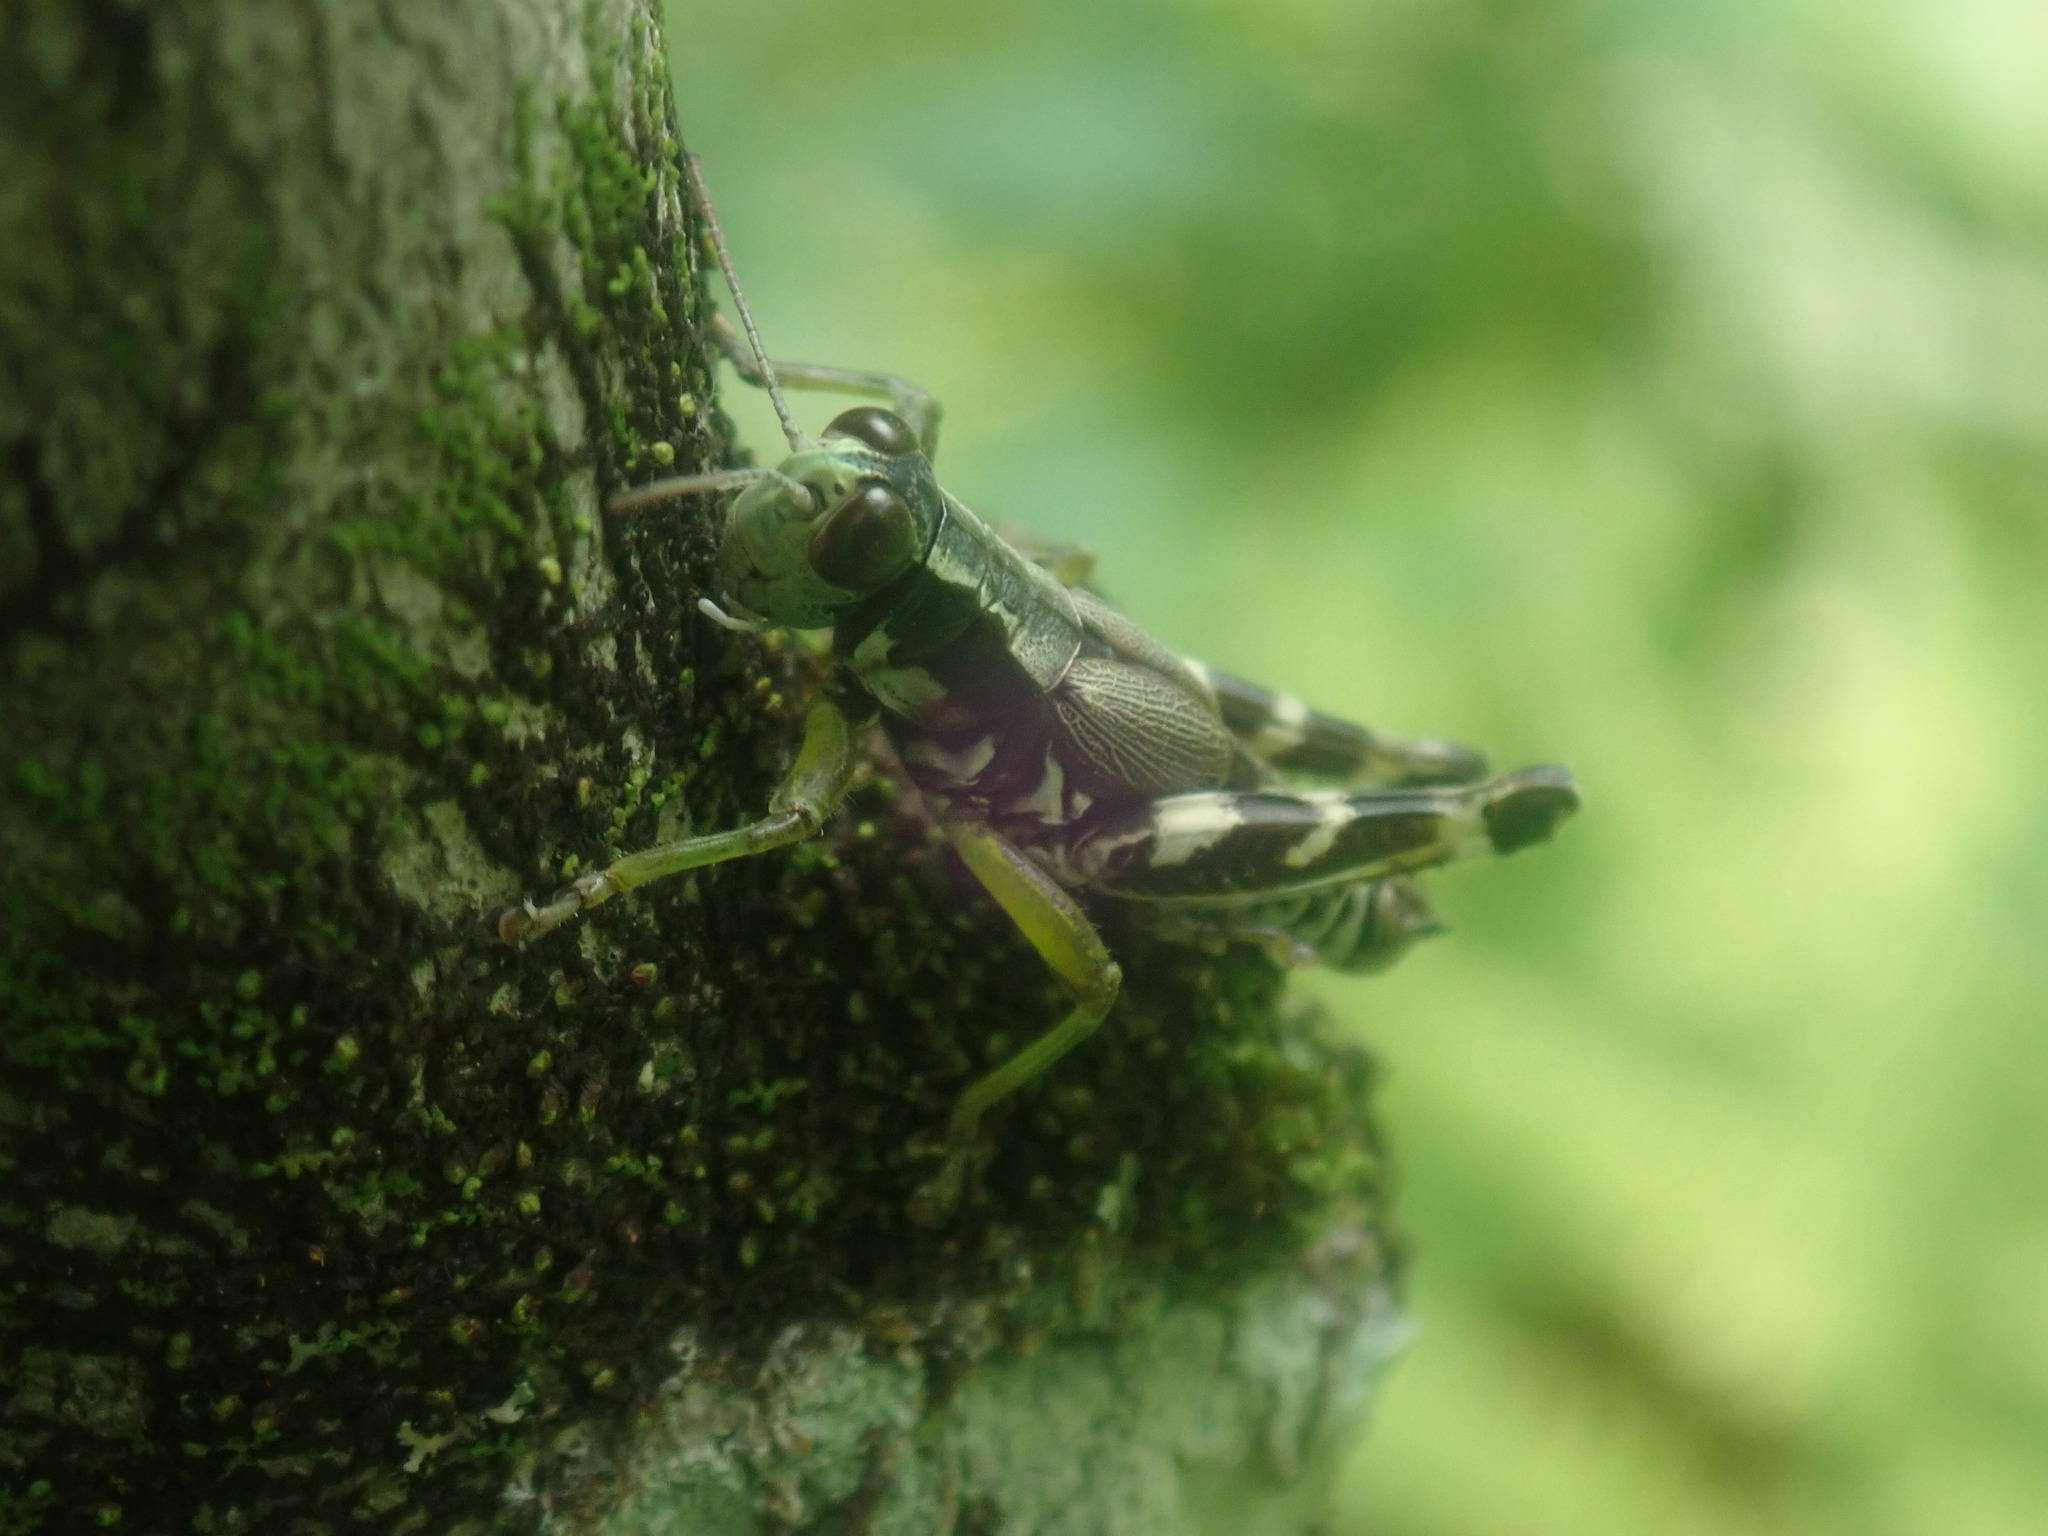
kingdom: Animalia
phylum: Arthropoda
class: Insecta
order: Orthoptera
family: Acrididae
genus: Melanoplus
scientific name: Melanoplus viridipes
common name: Green-legged locust
